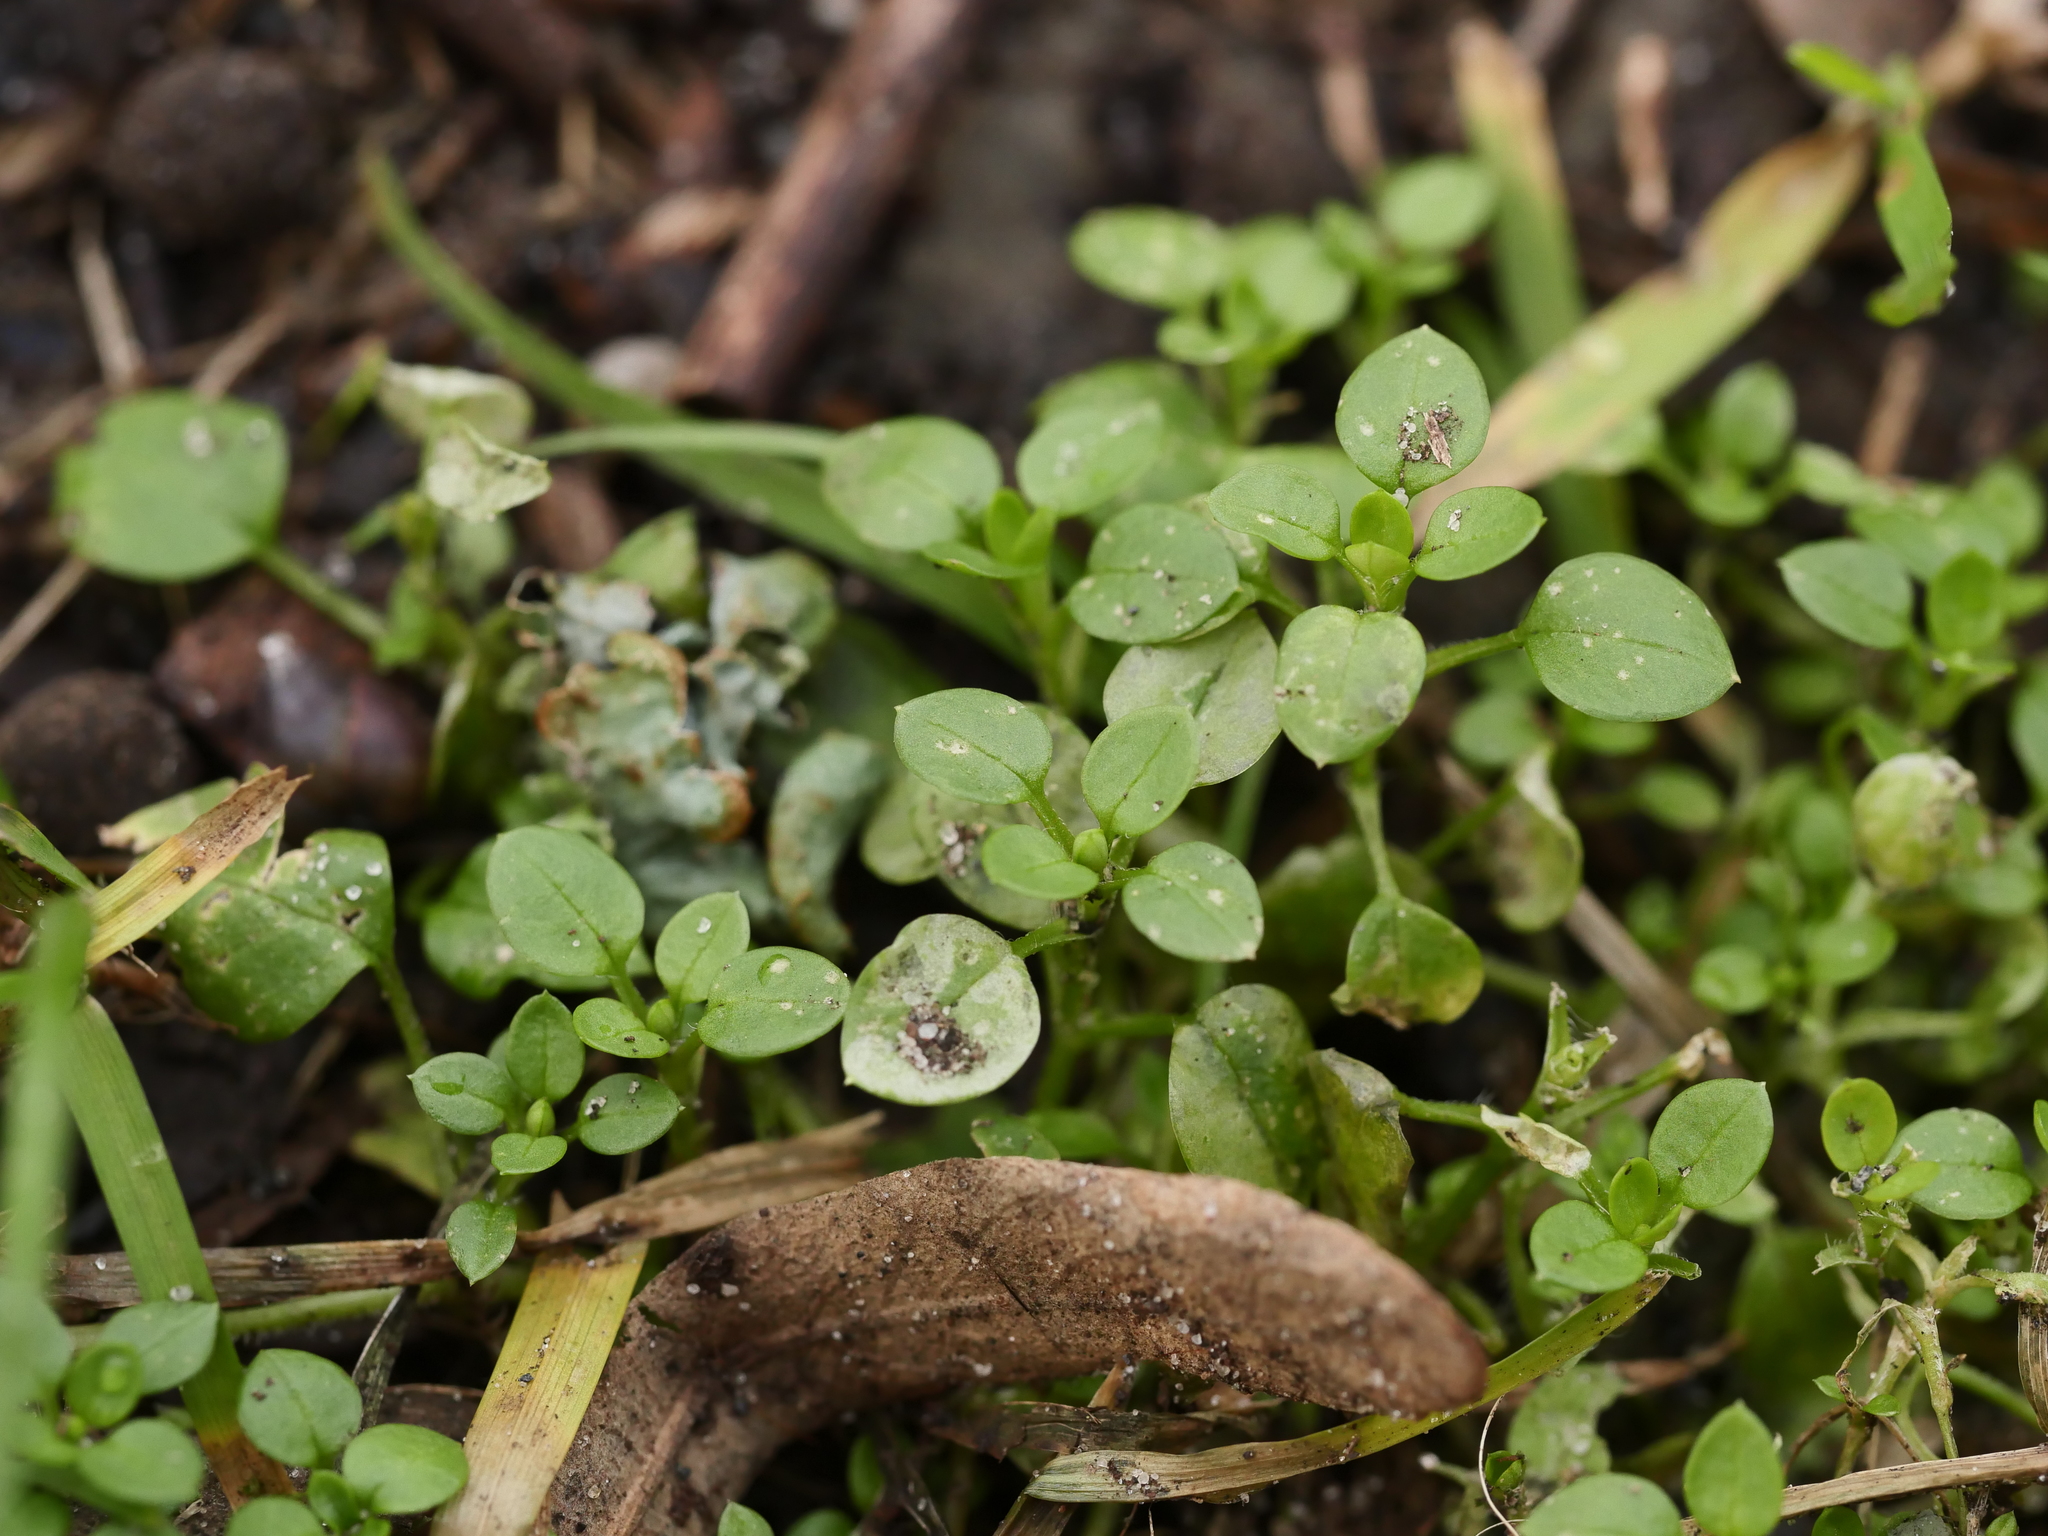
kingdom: Plantae
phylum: Tracheophyta
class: Magnoliopsida
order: Caryophyllales
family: Caryophyllaceae
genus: Stellaria
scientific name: Stellaria media
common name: Common chickweed
